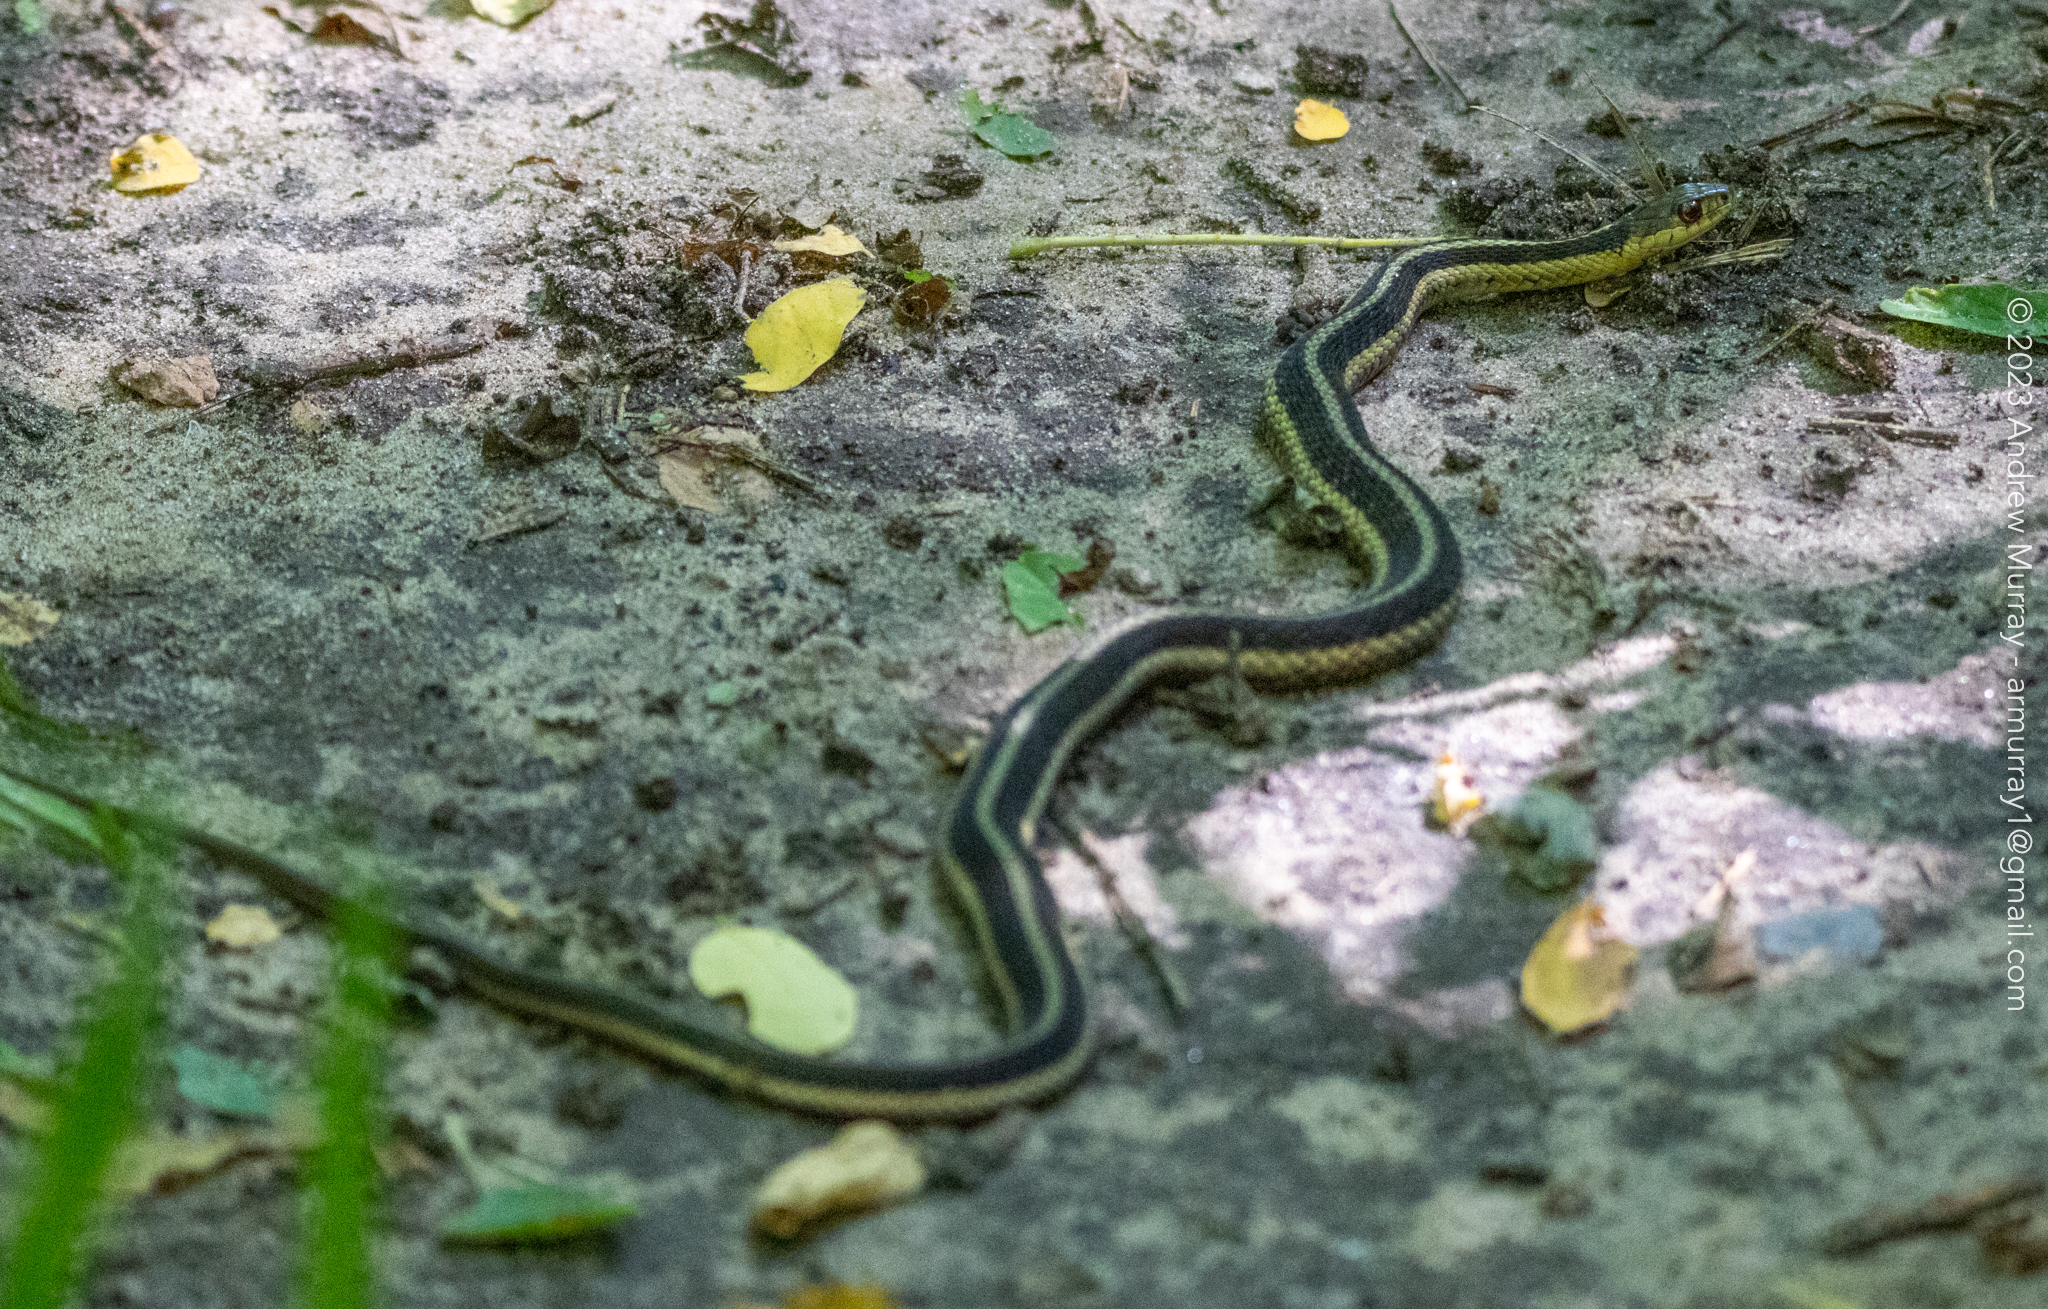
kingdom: Animalia
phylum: Chordata
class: Squamata
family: Colubridae
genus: Thamnophis
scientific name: Thamnophis sirtalis
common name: Common garter snake
